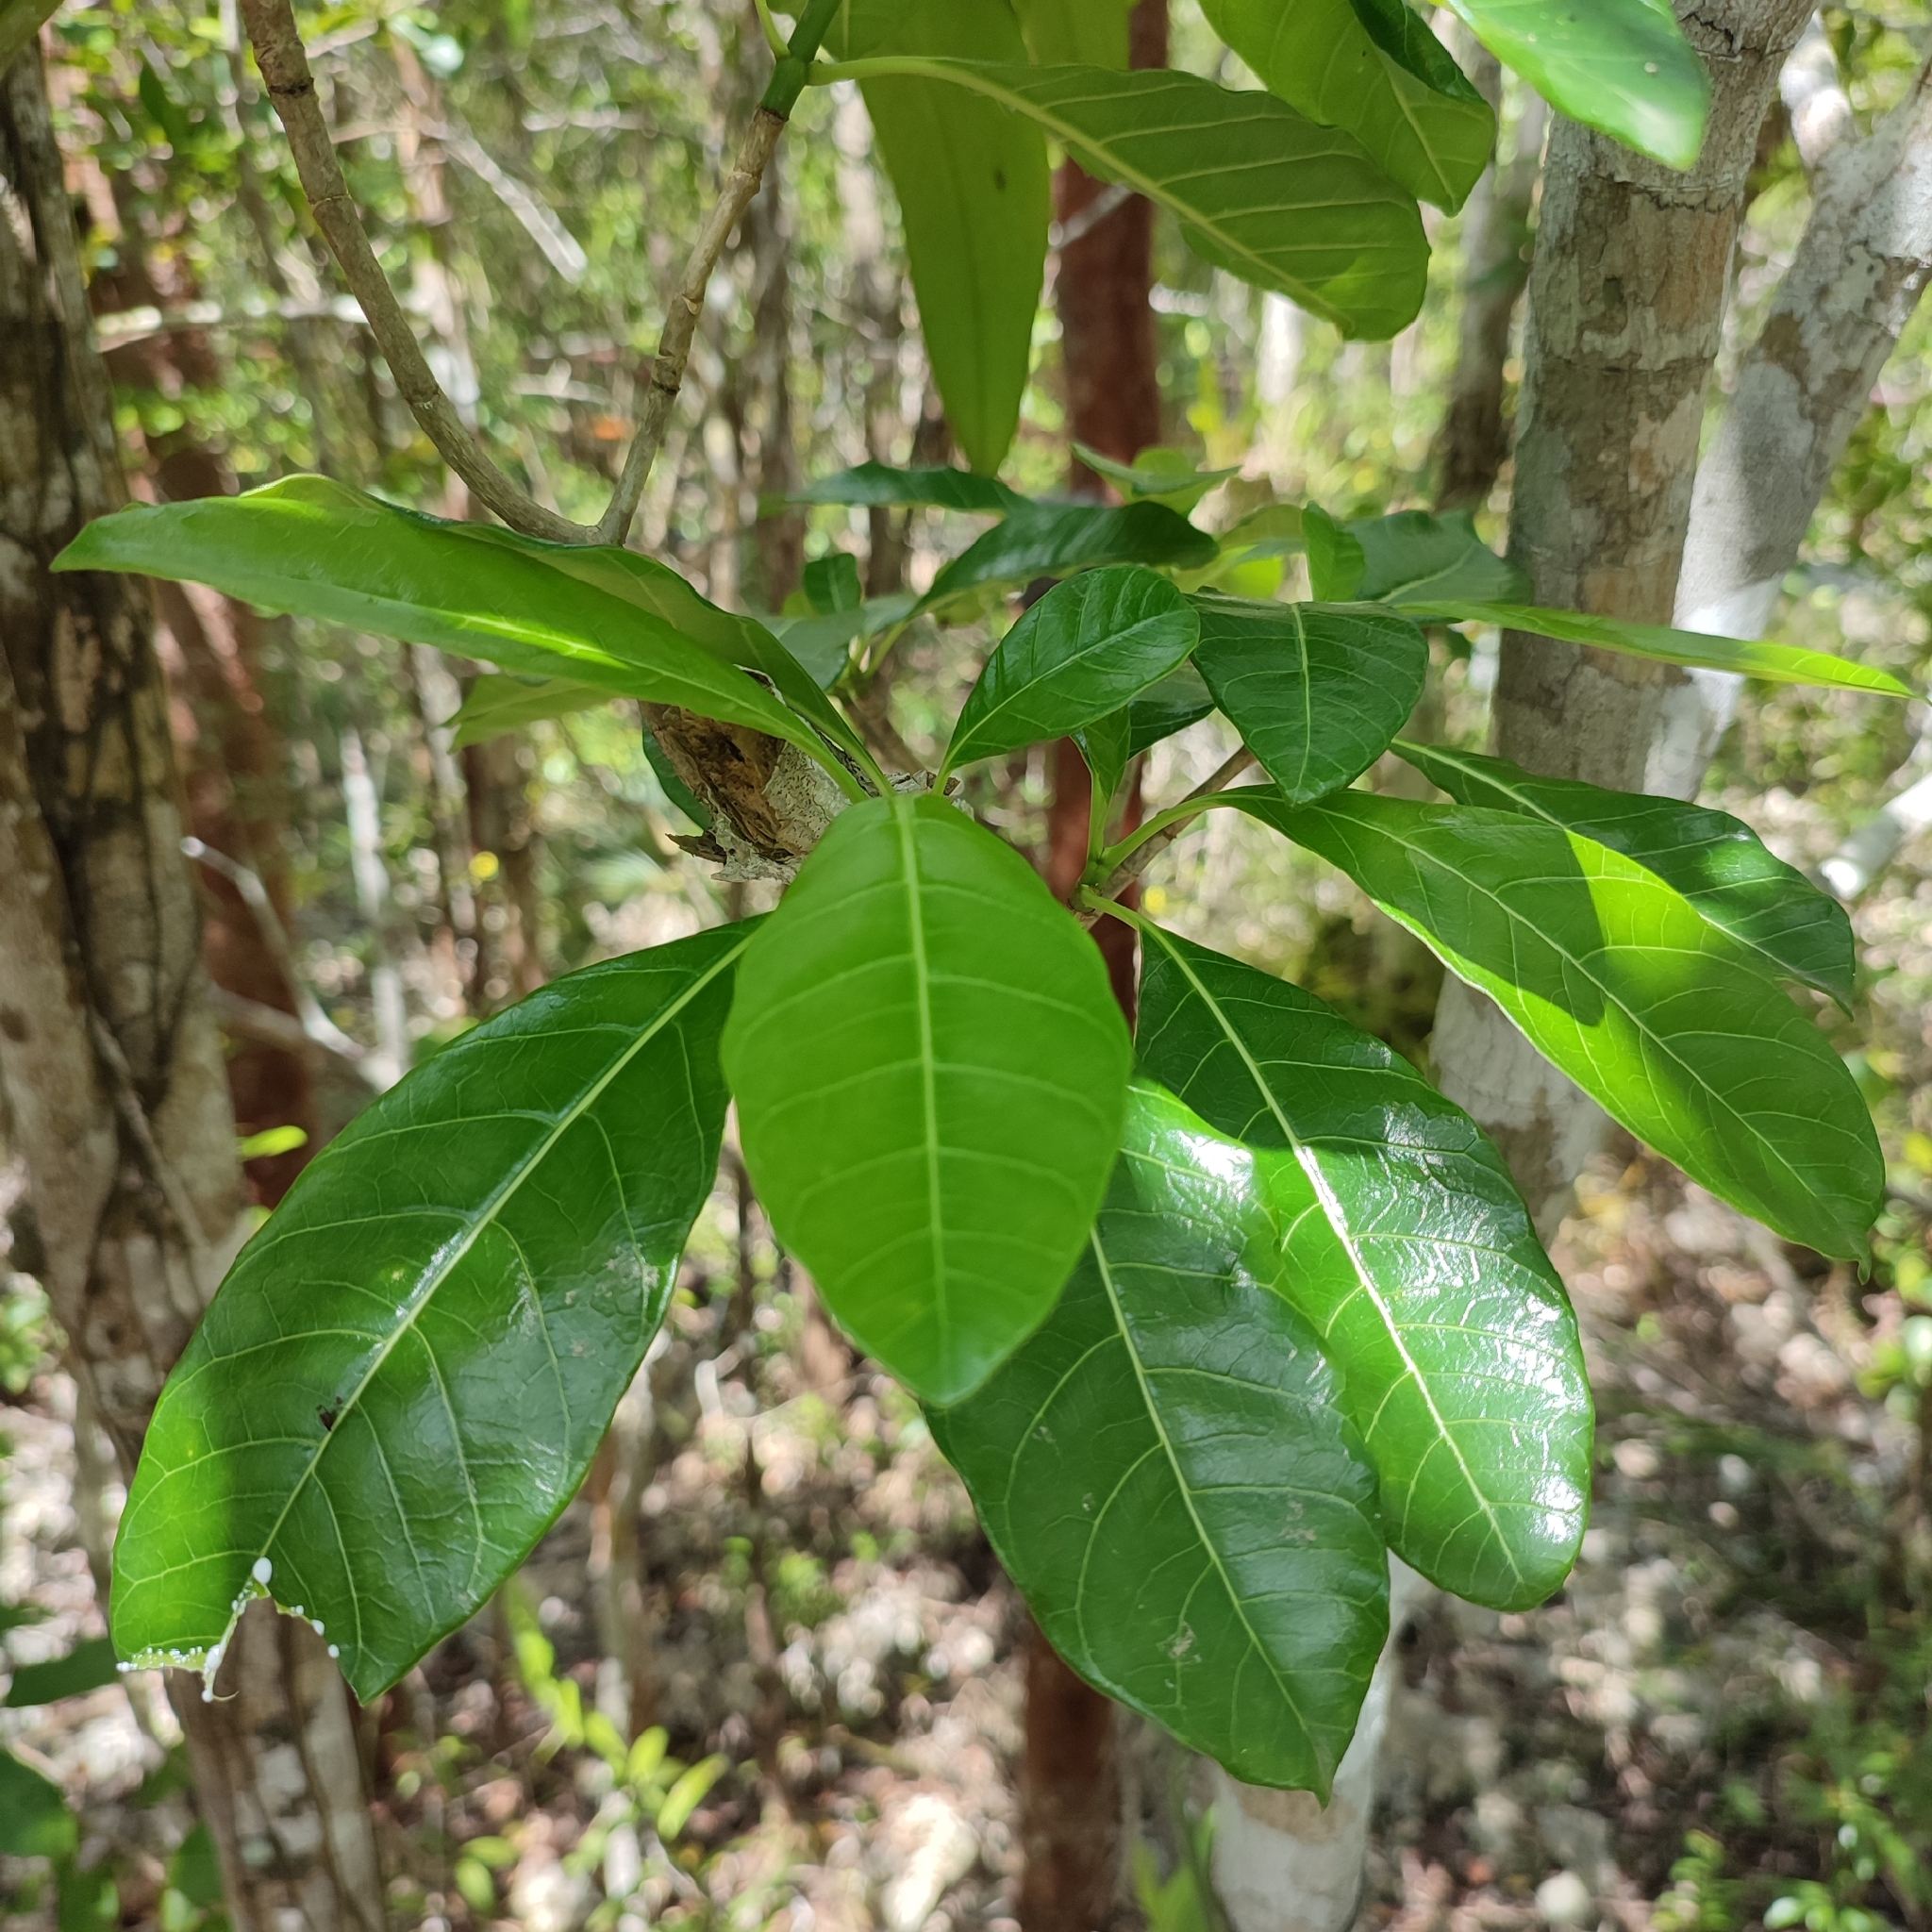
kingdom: Plantae
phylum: Tracheophyta
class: Magnoliopsida
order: Gentianales
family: Apocynaceae
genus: Tabernaemontana
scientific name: Tabernaemontana laurifolia
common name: Slingshot
